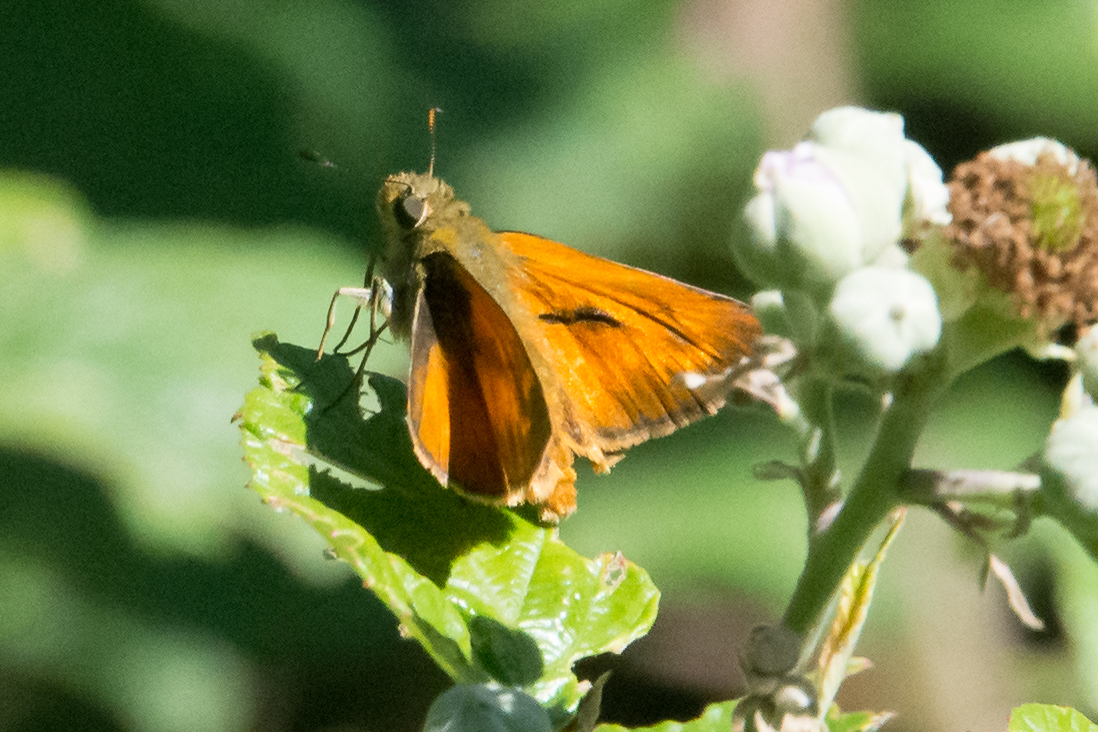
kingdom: Animalia
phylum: Arthropoda
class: Insecta
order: Lepidoptera
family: Hesperiidae
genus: Ochlodes
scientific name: Ochlodes venata
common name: Large skipper
